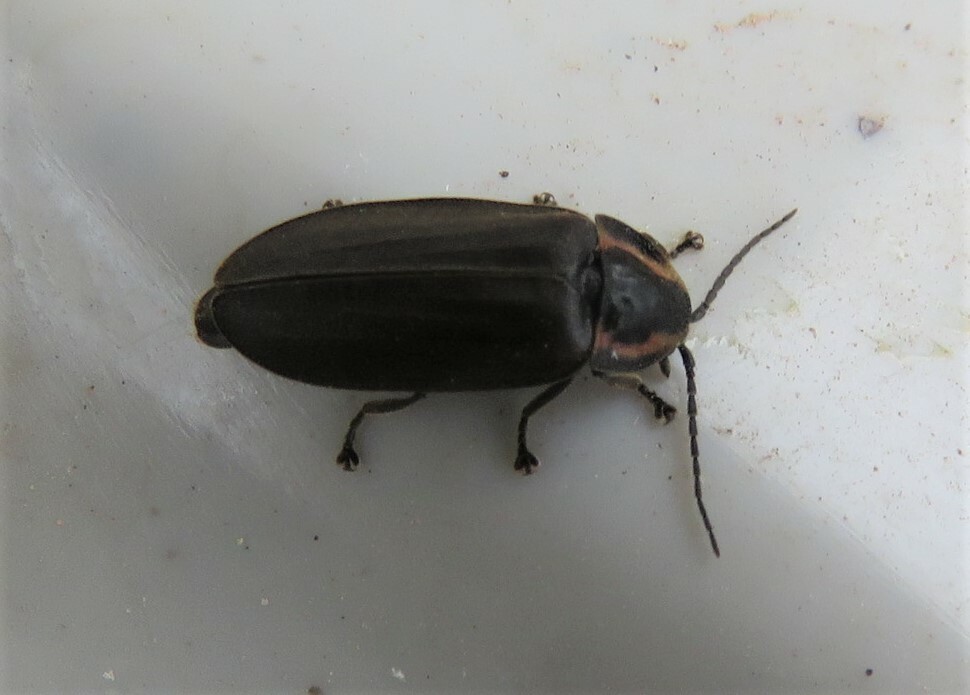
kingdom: Animalia
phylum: Arthropoda
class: Insecta
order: Coleoptera
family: Lampyridae
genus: Photinus
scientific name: Photinus corrusca
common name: Winter firefly
